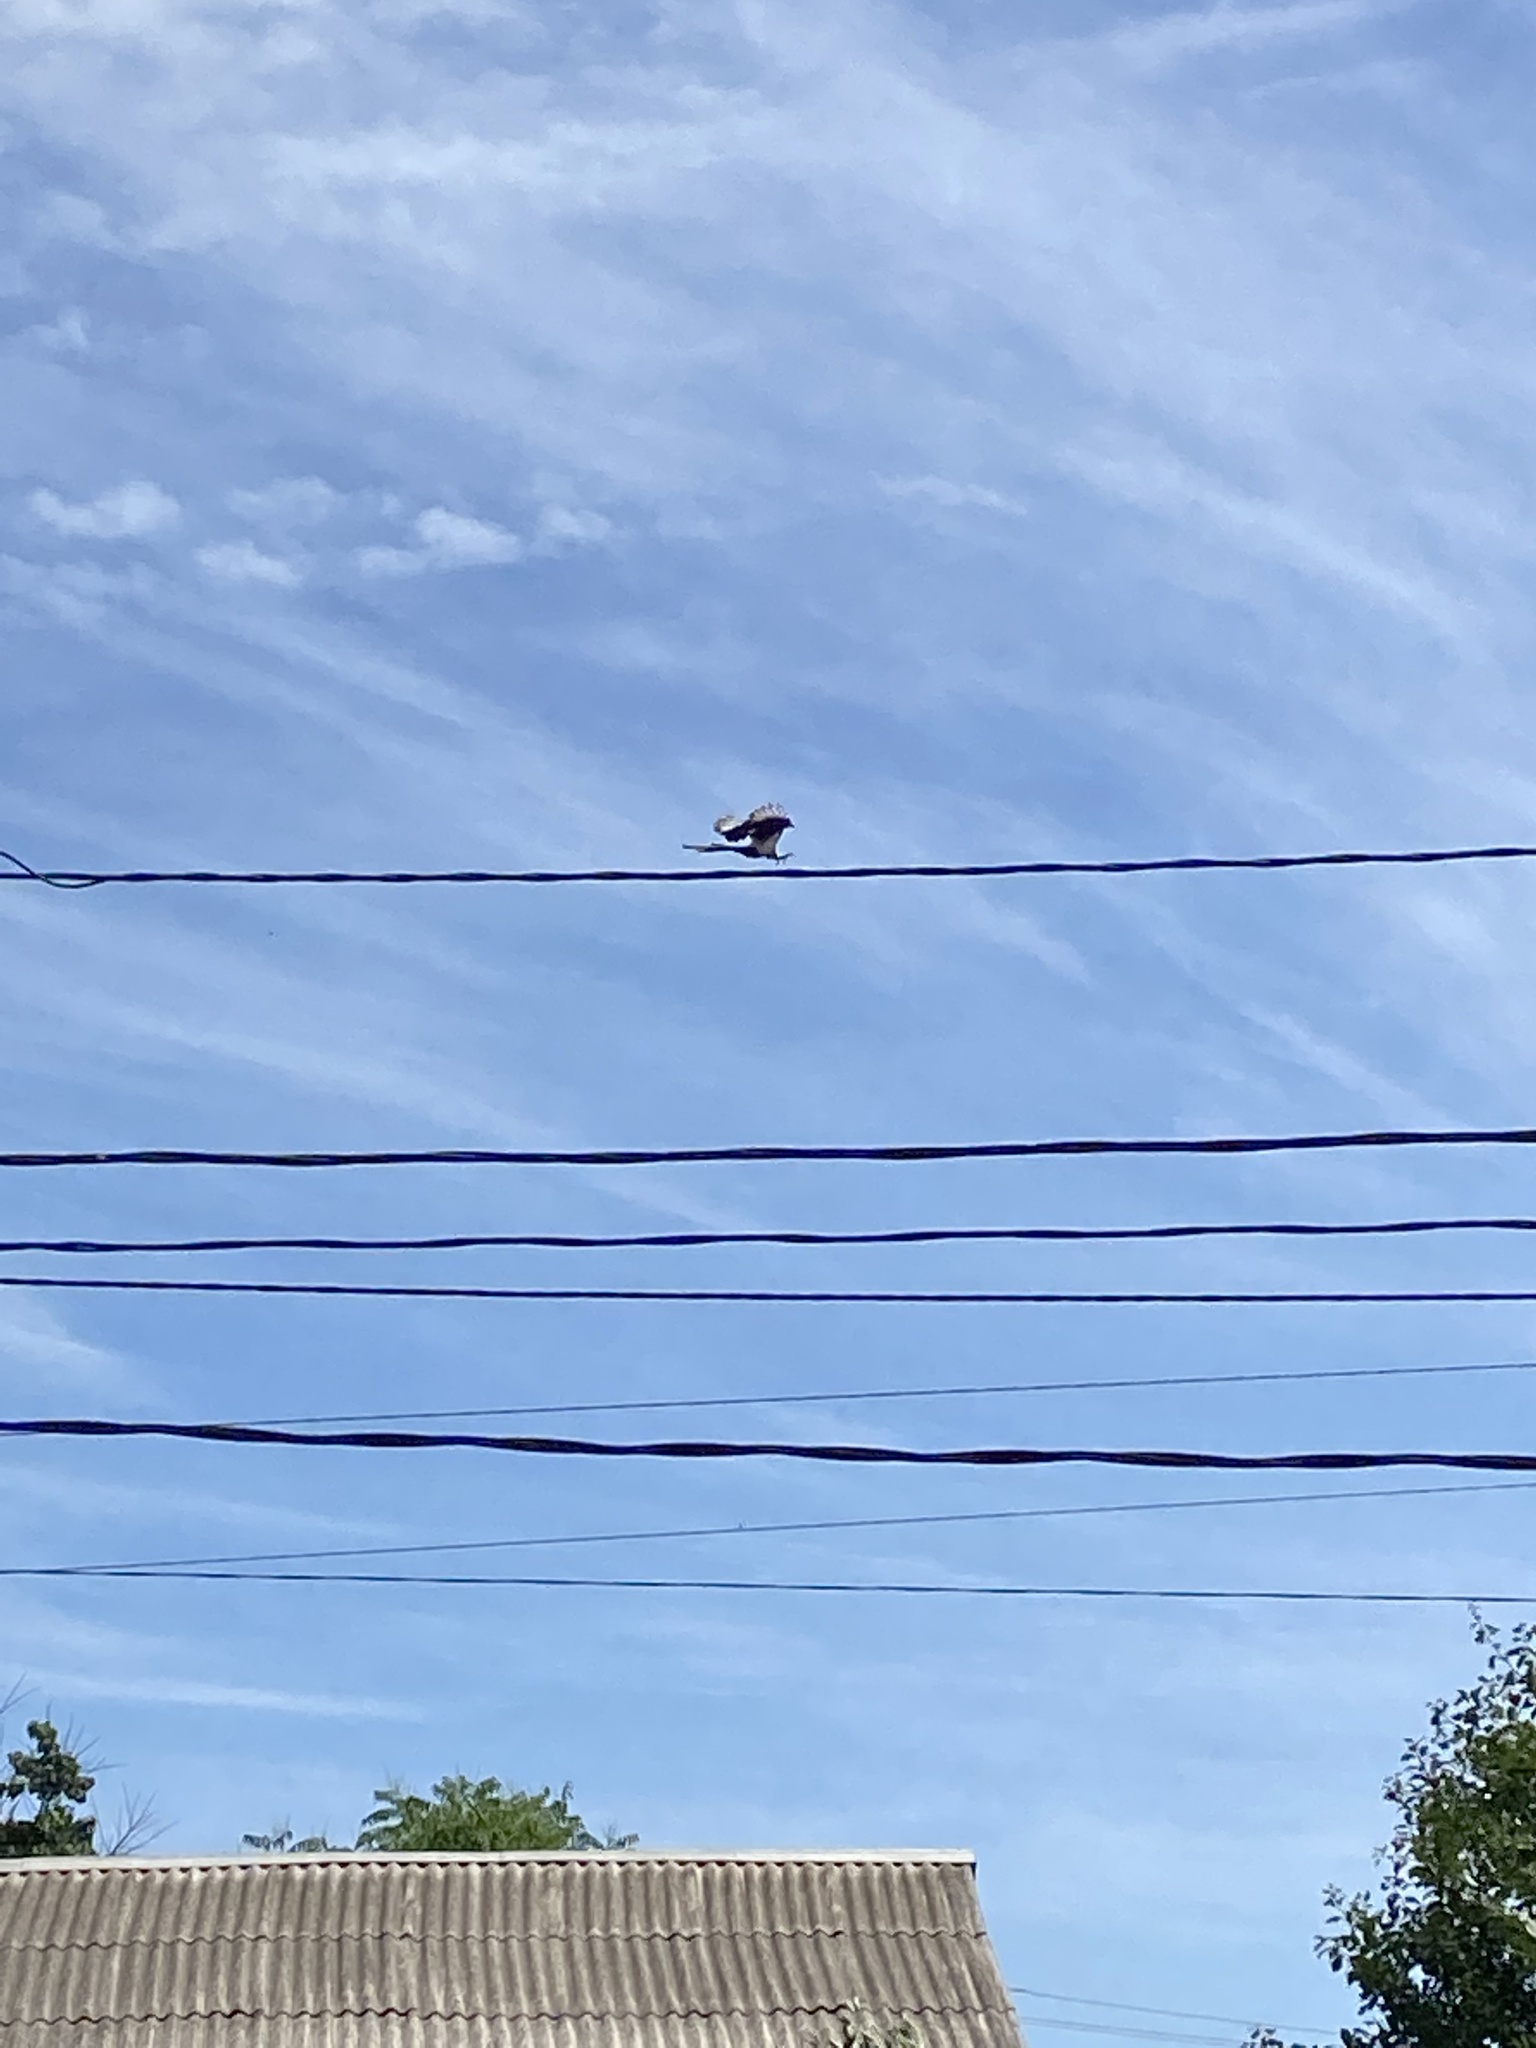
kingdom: Animalia
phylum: Chordata
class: Aves
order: Passeriformes
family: Corvidae
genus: Pica
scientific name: Pica pica
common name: Eurasian magpie
